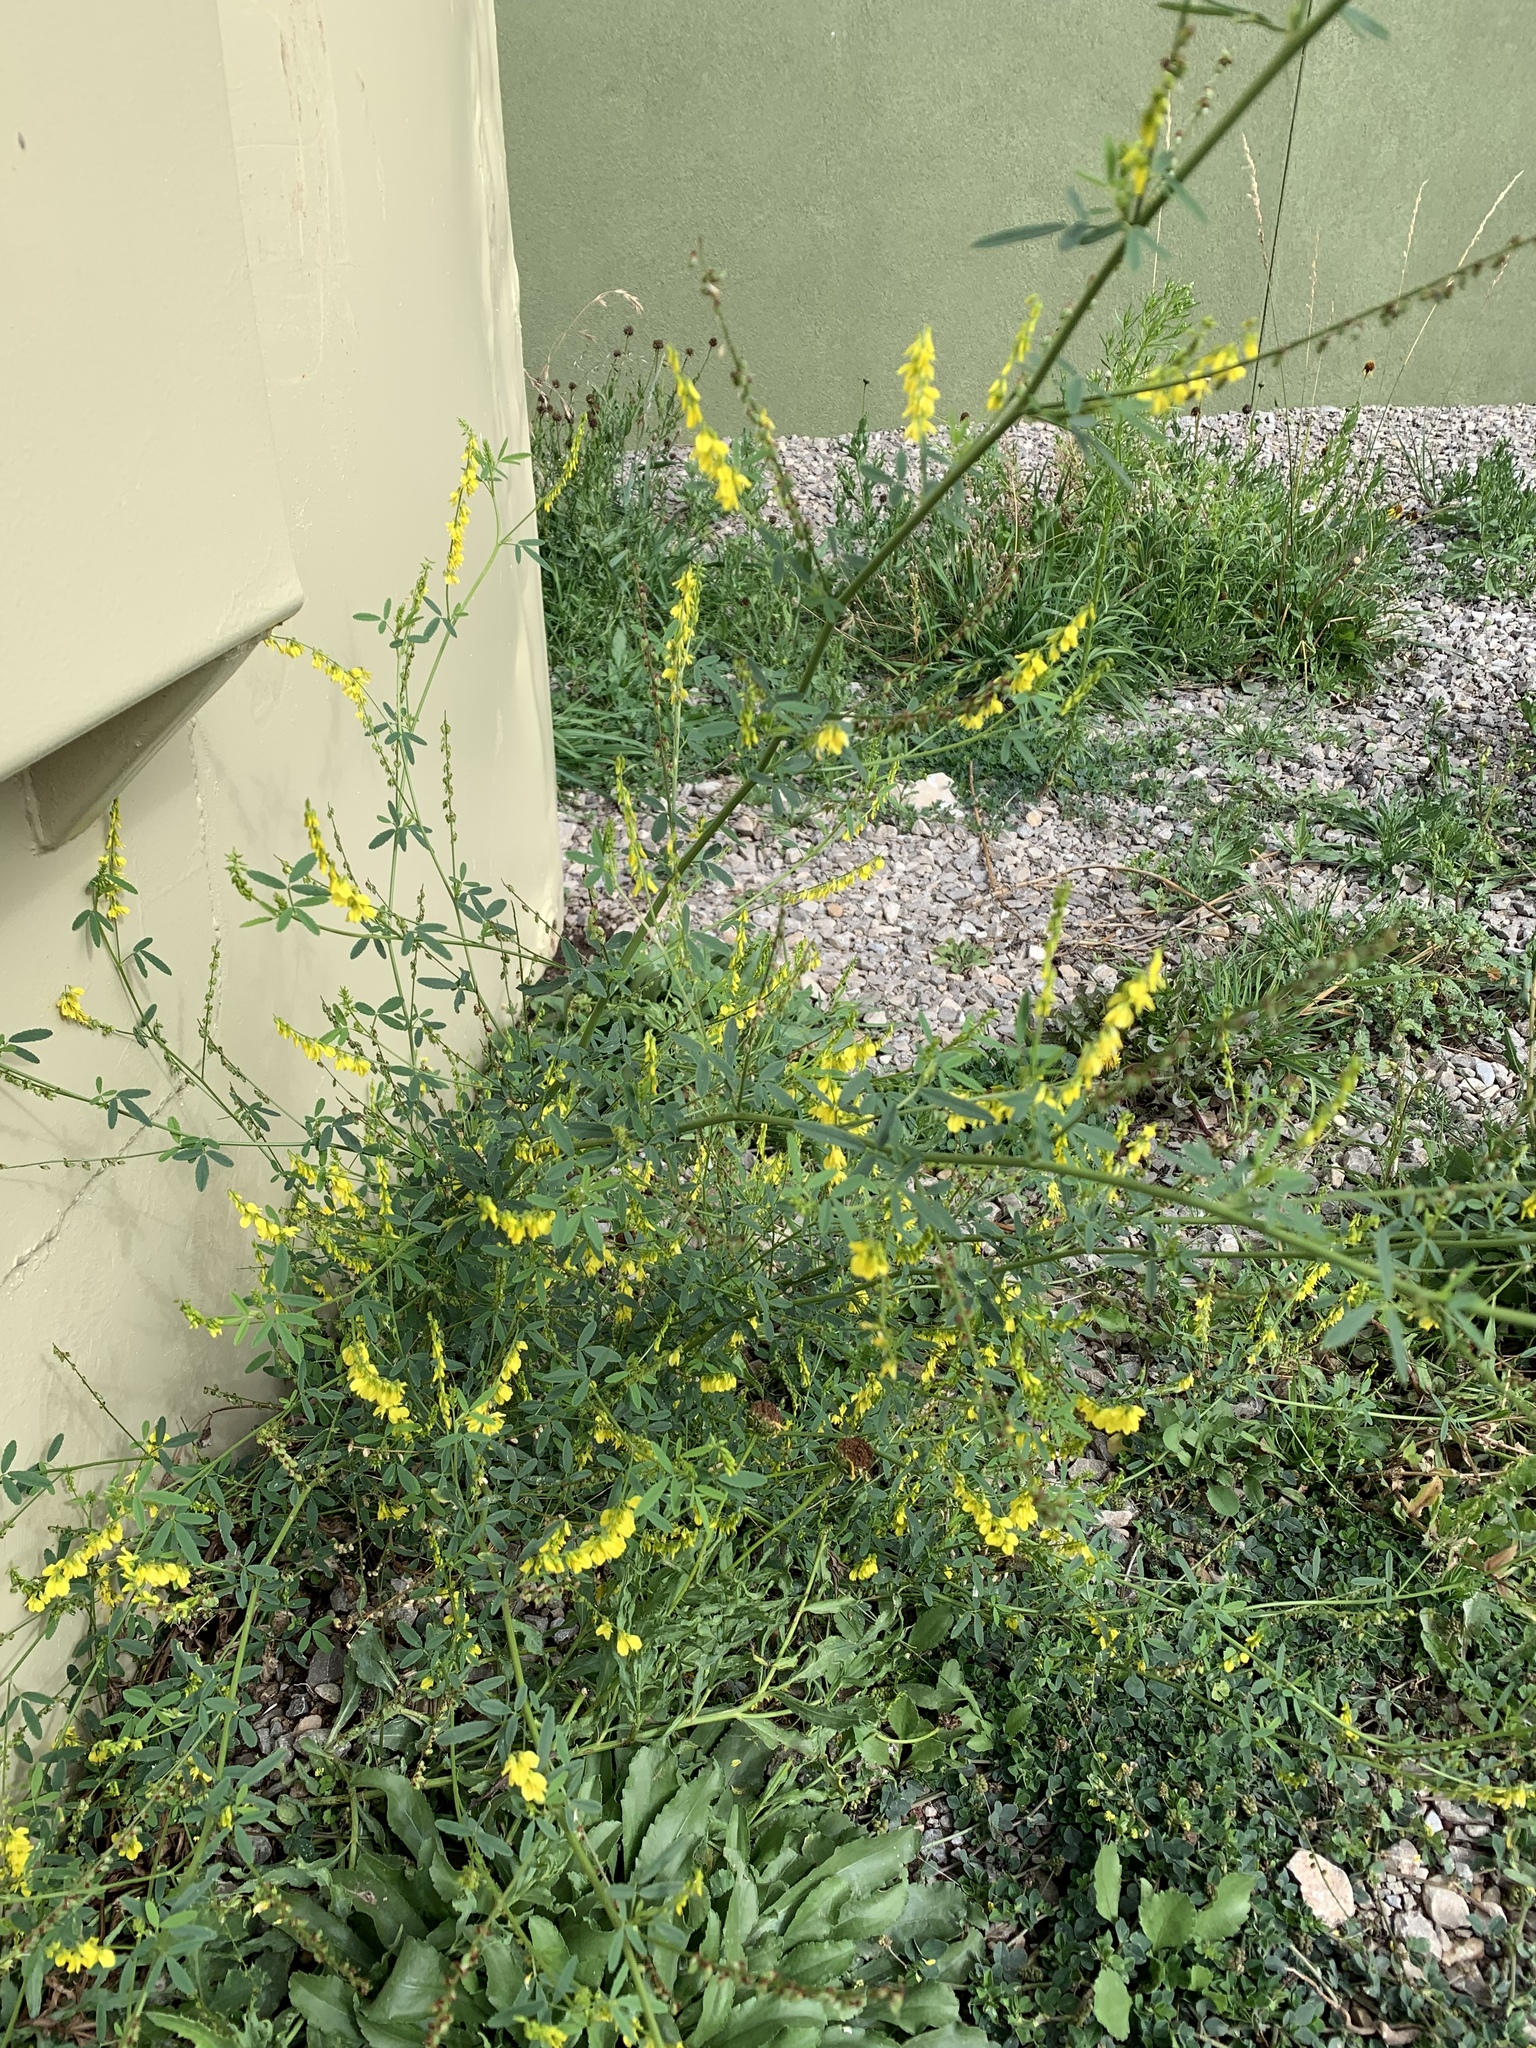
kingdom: Plantae
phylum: Tracheophyta
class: Magnoliopsida
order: Fabales
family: Fabaceae
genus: Melilotus
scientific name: Melilotus officinalis
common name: Sweetclover
